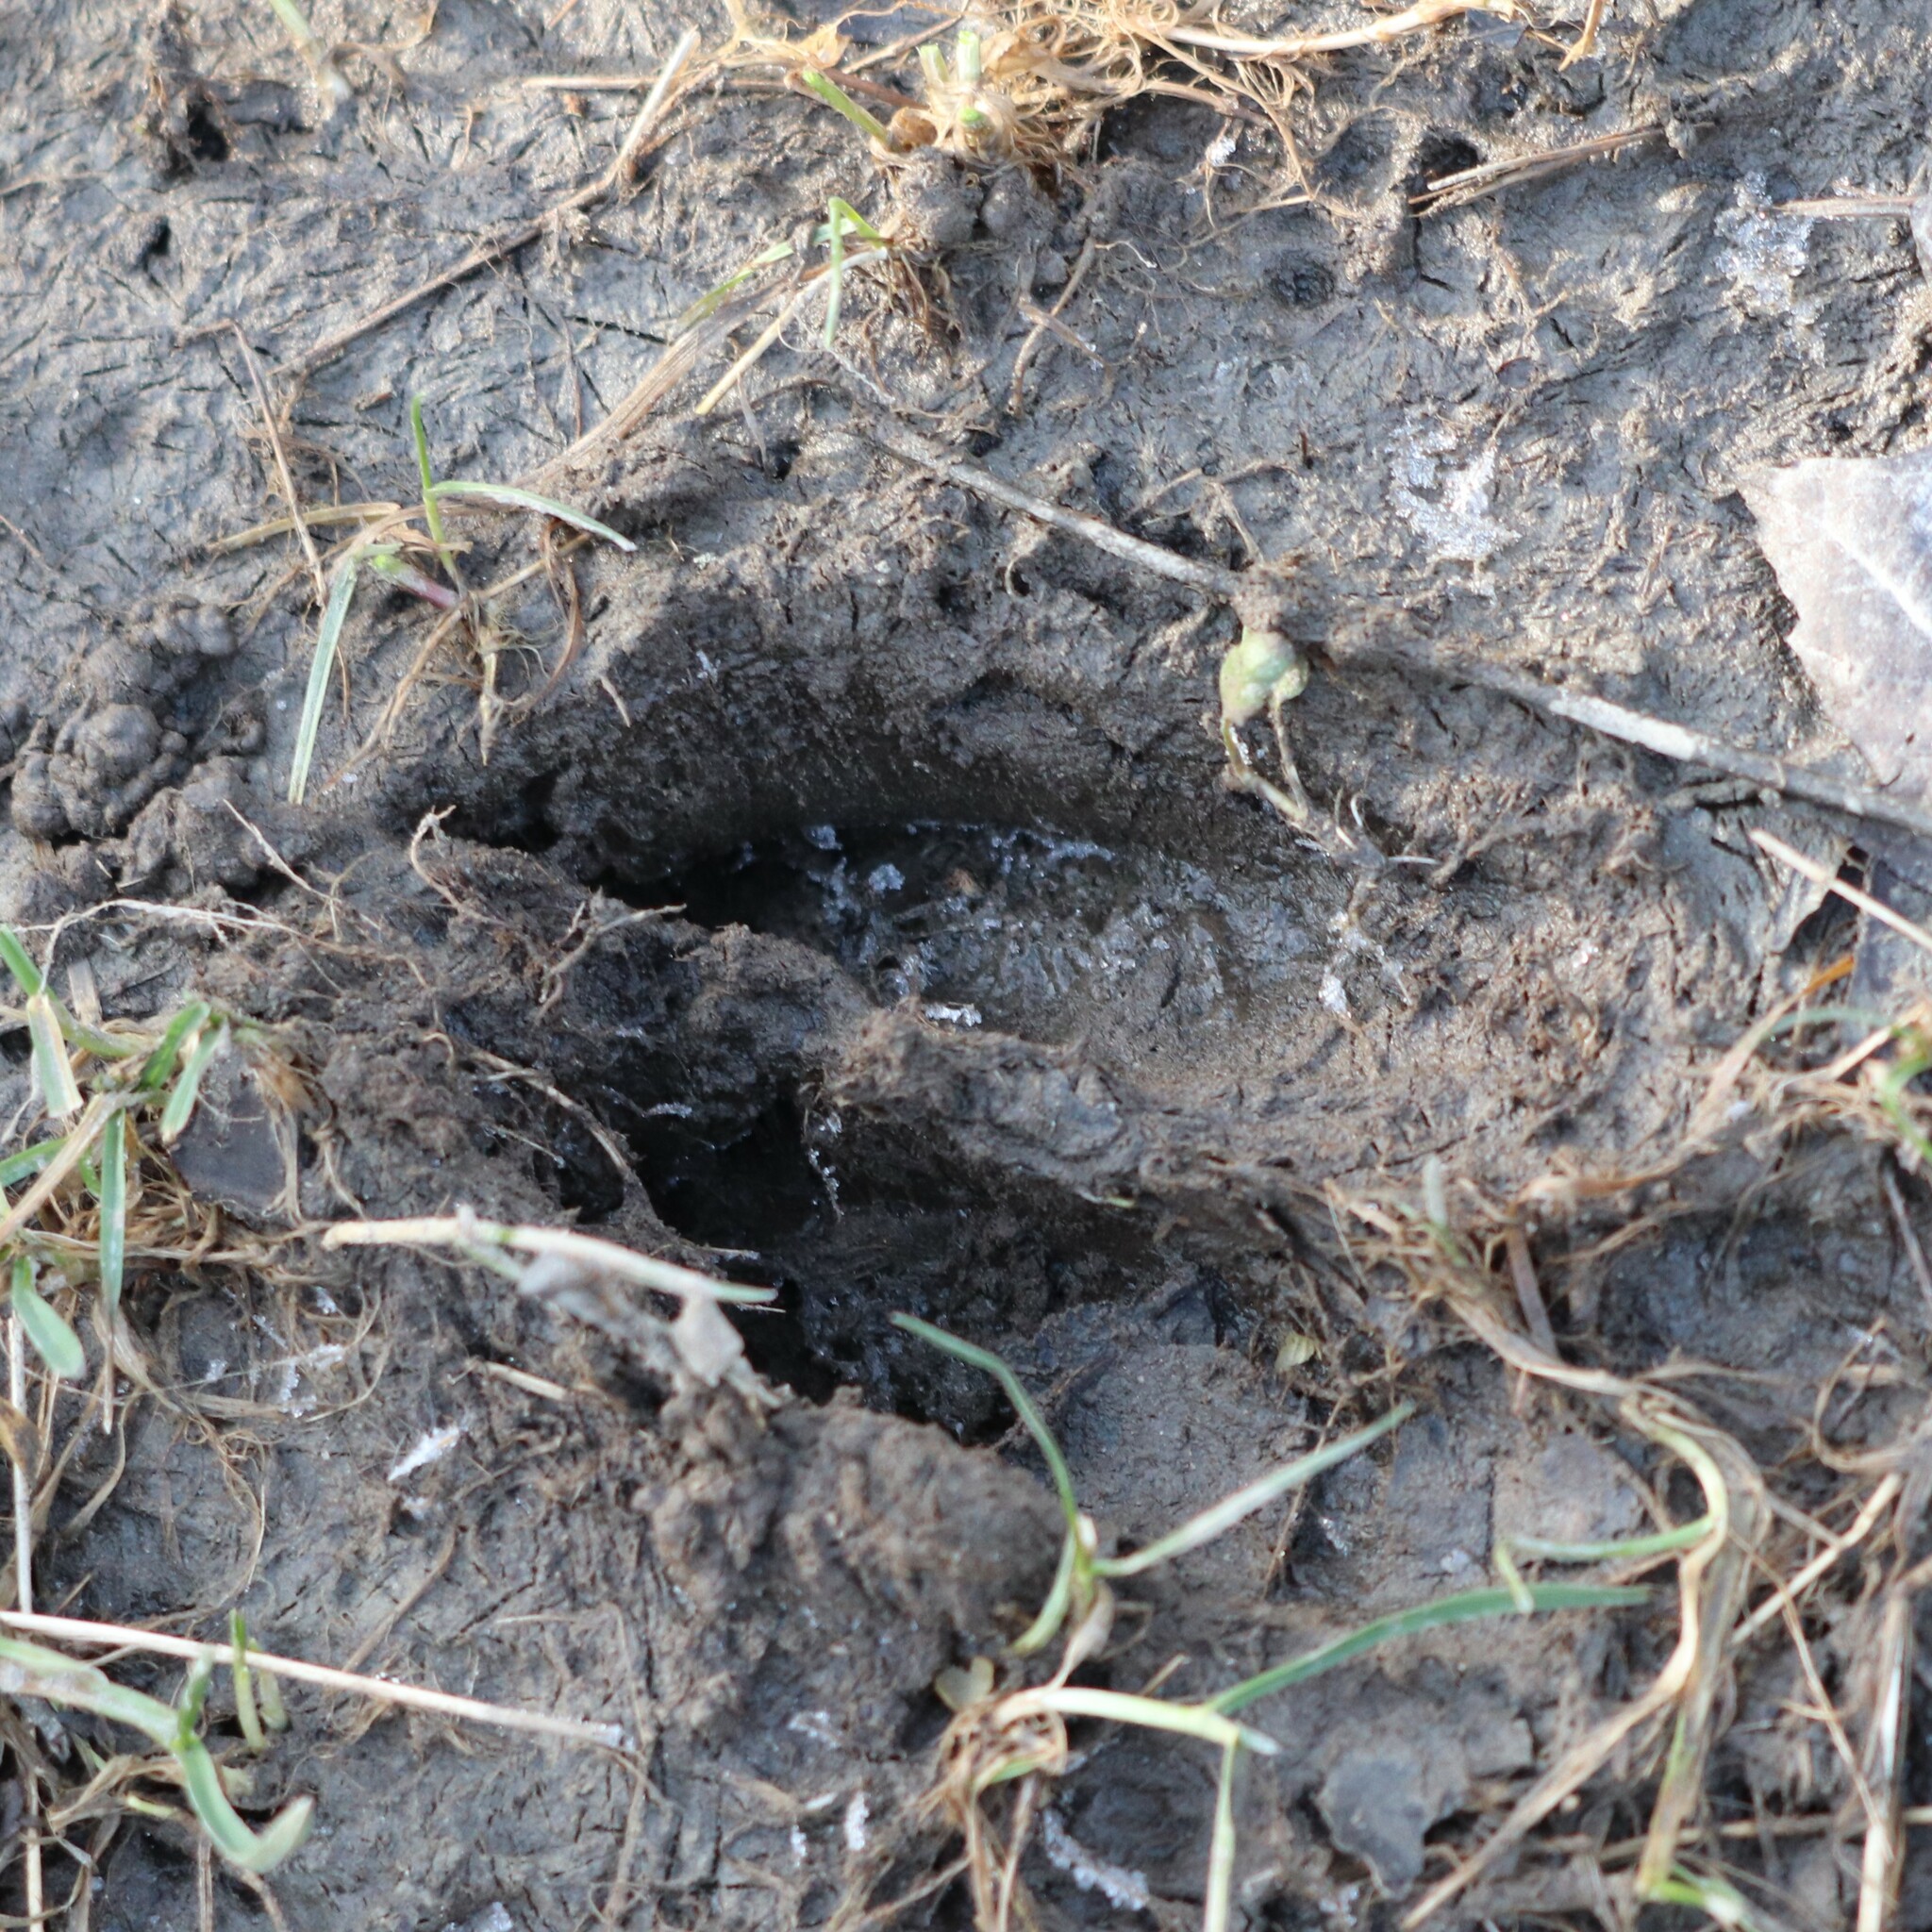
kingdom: Animalia
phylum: Chordata
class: Mammalia
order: Artiodactyla
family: Cervidae
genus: Odocoileus
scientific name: Odocoileus virginianus
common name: White-tailed deer
